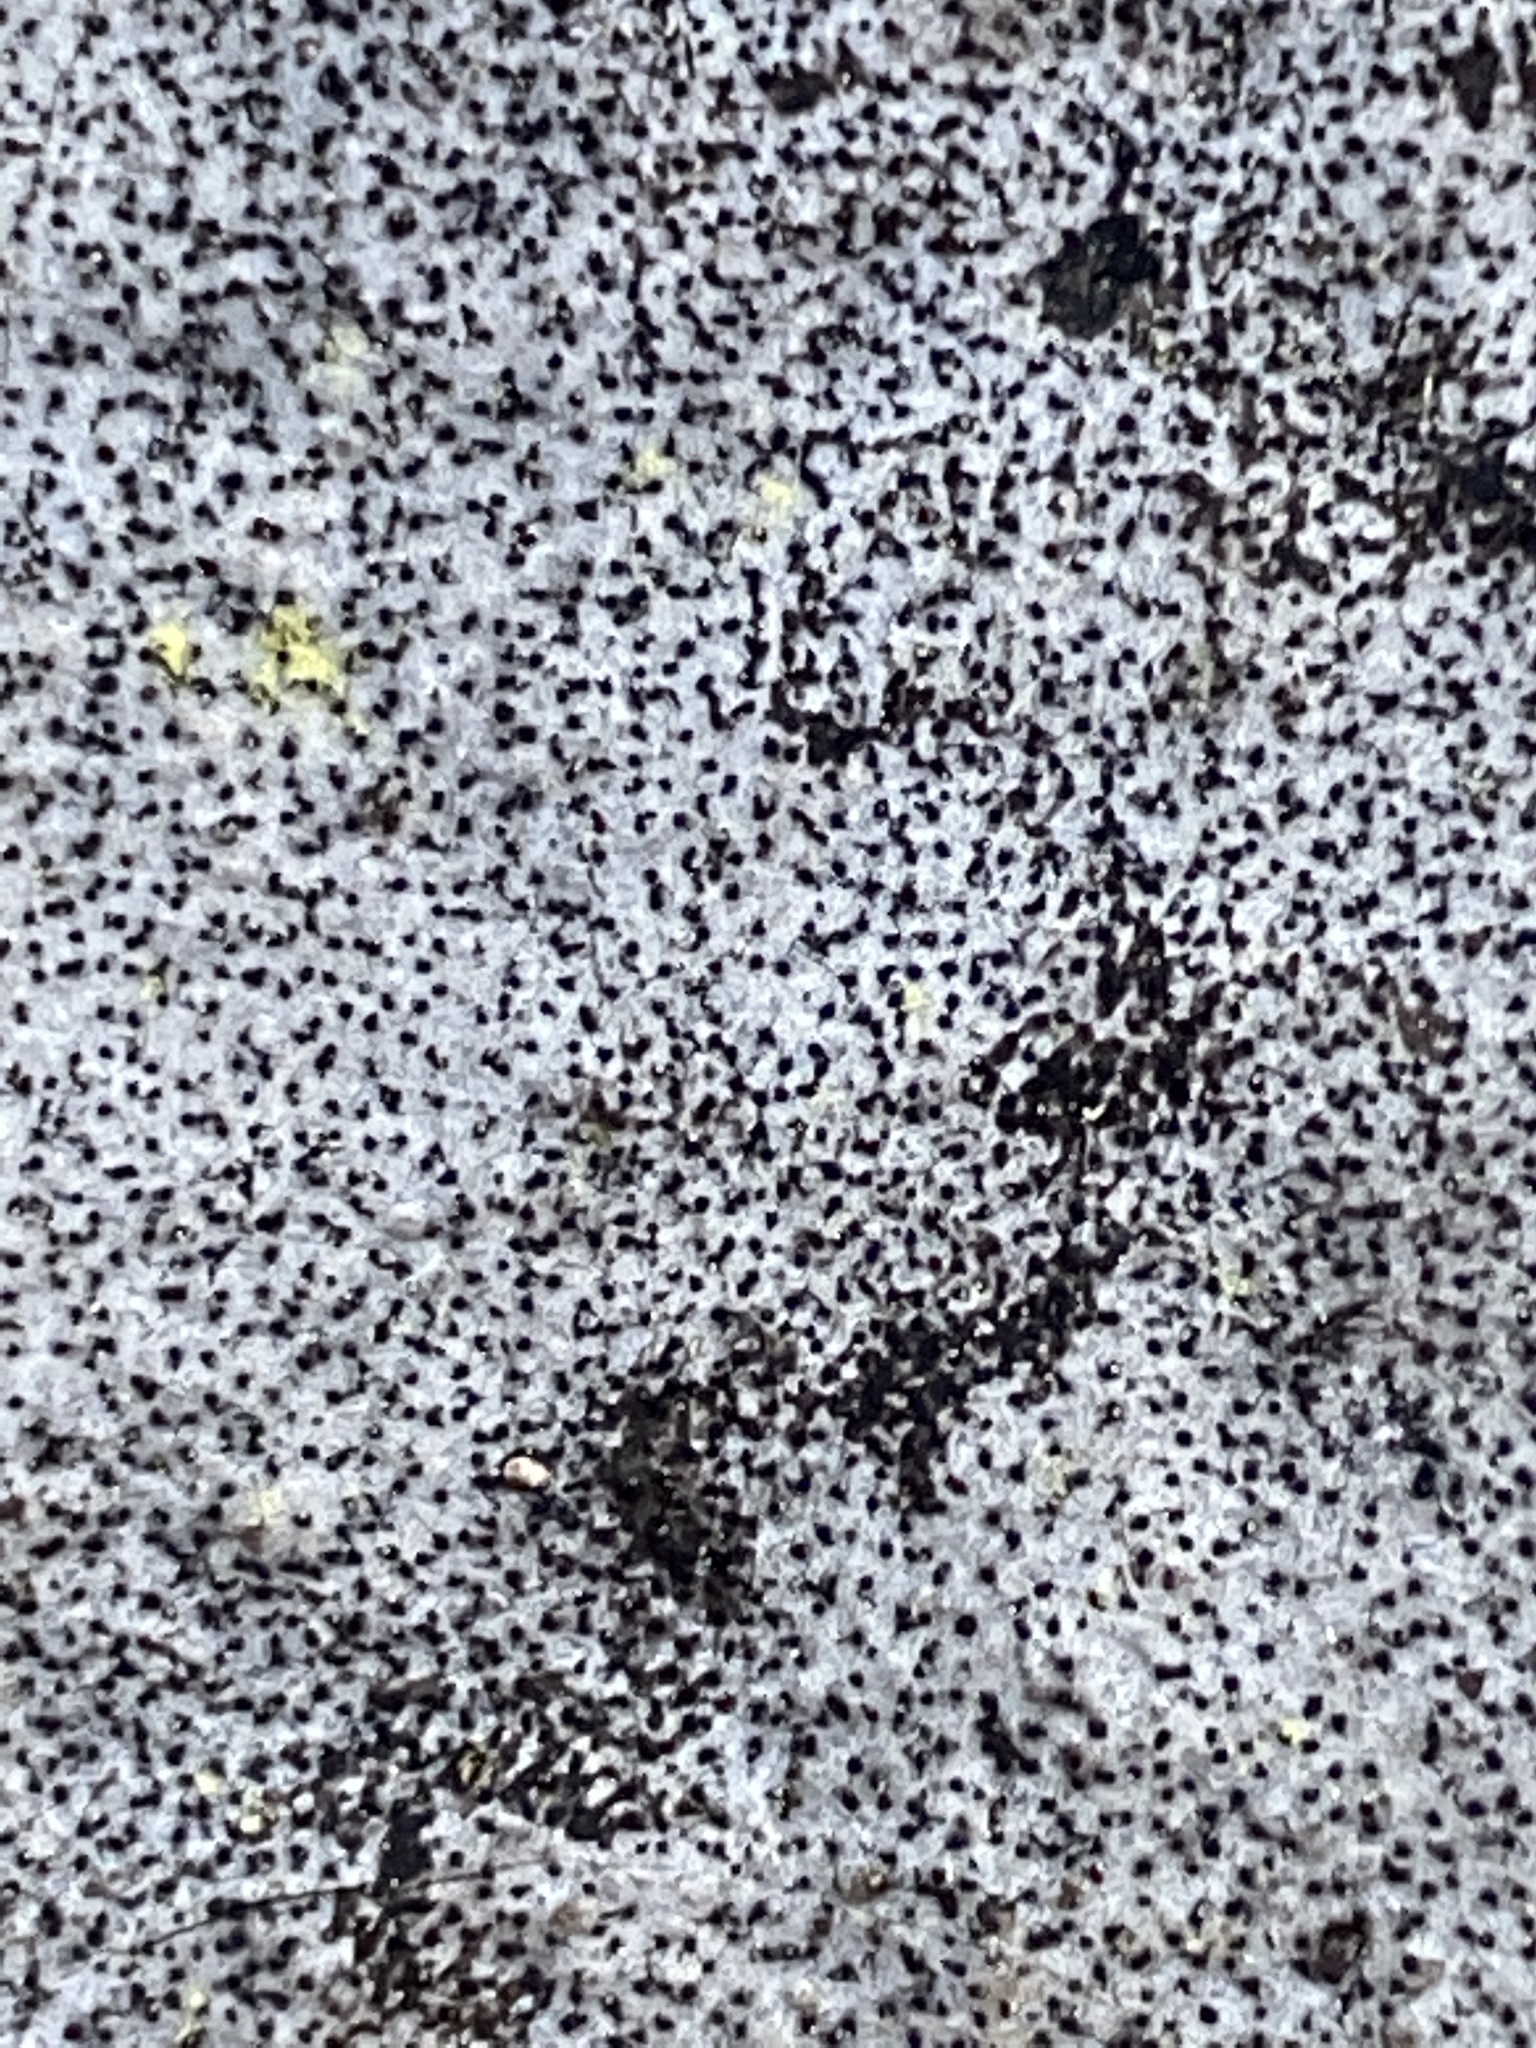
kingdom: Fungi
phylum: Ascomycota
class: Sordariomycetes
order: Xylariales
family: Graphostromataceae
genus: Biscogniauxia
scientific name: Biscogniauxia atropunctata
